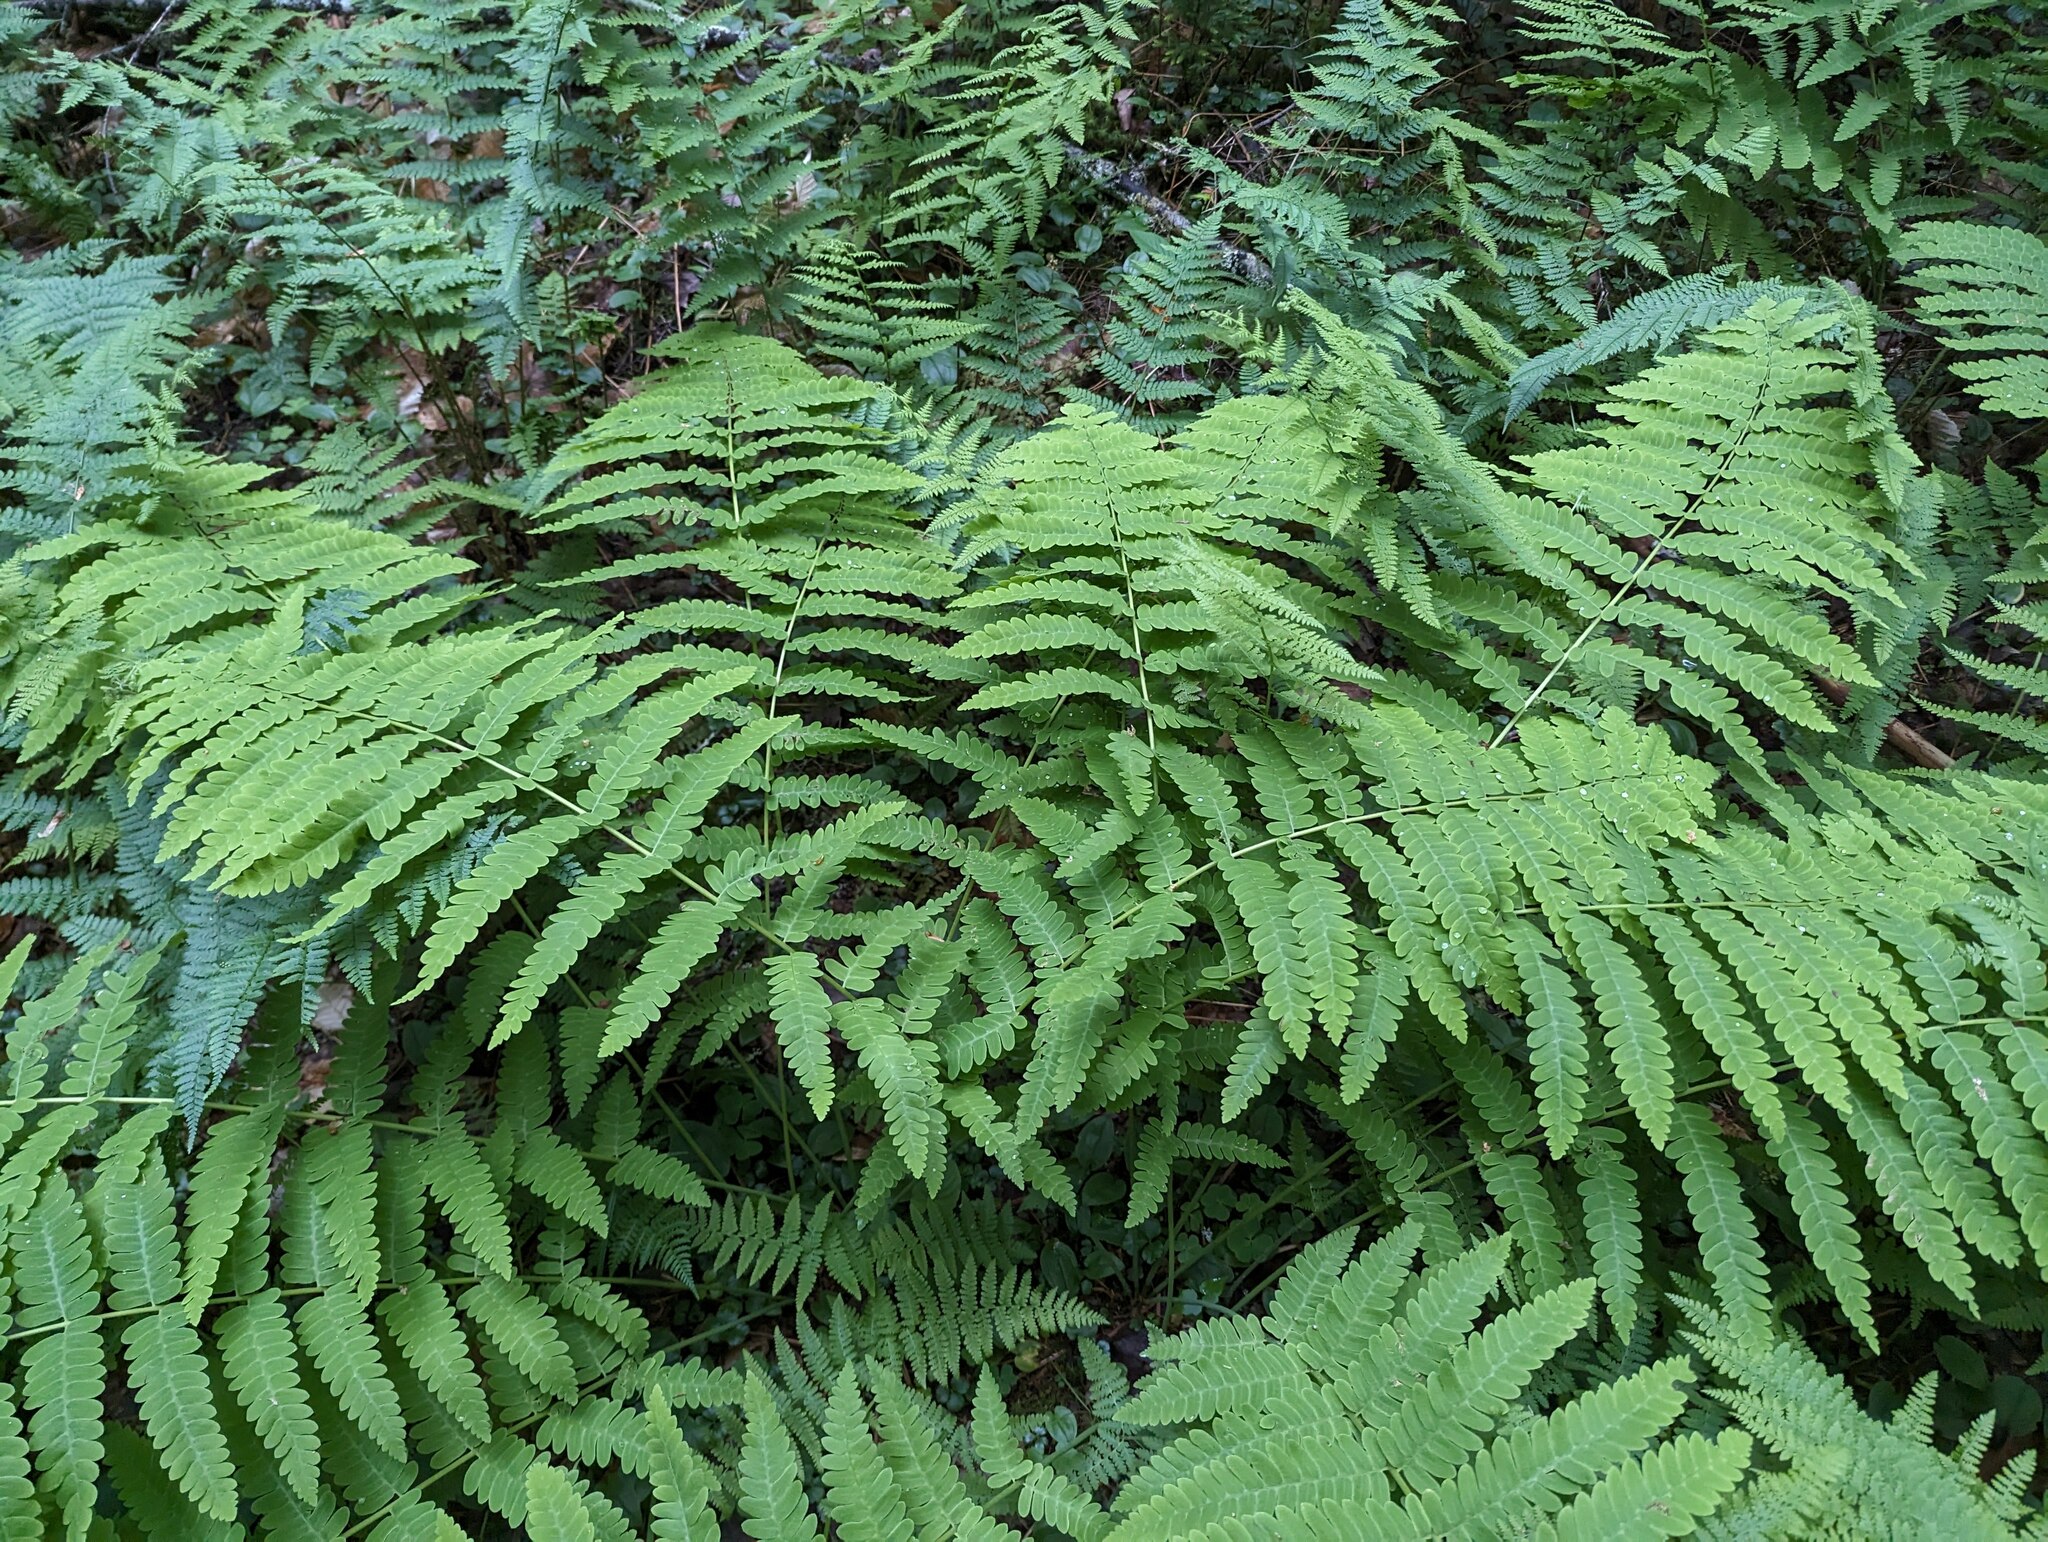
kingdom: Plantae
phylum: Tracheophyta
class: Polypodiopsida
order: Osmundales
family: Osmundaceae
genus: Claytosmunda
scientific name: Claytosmunda claytoniana
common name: Clayton's fern
